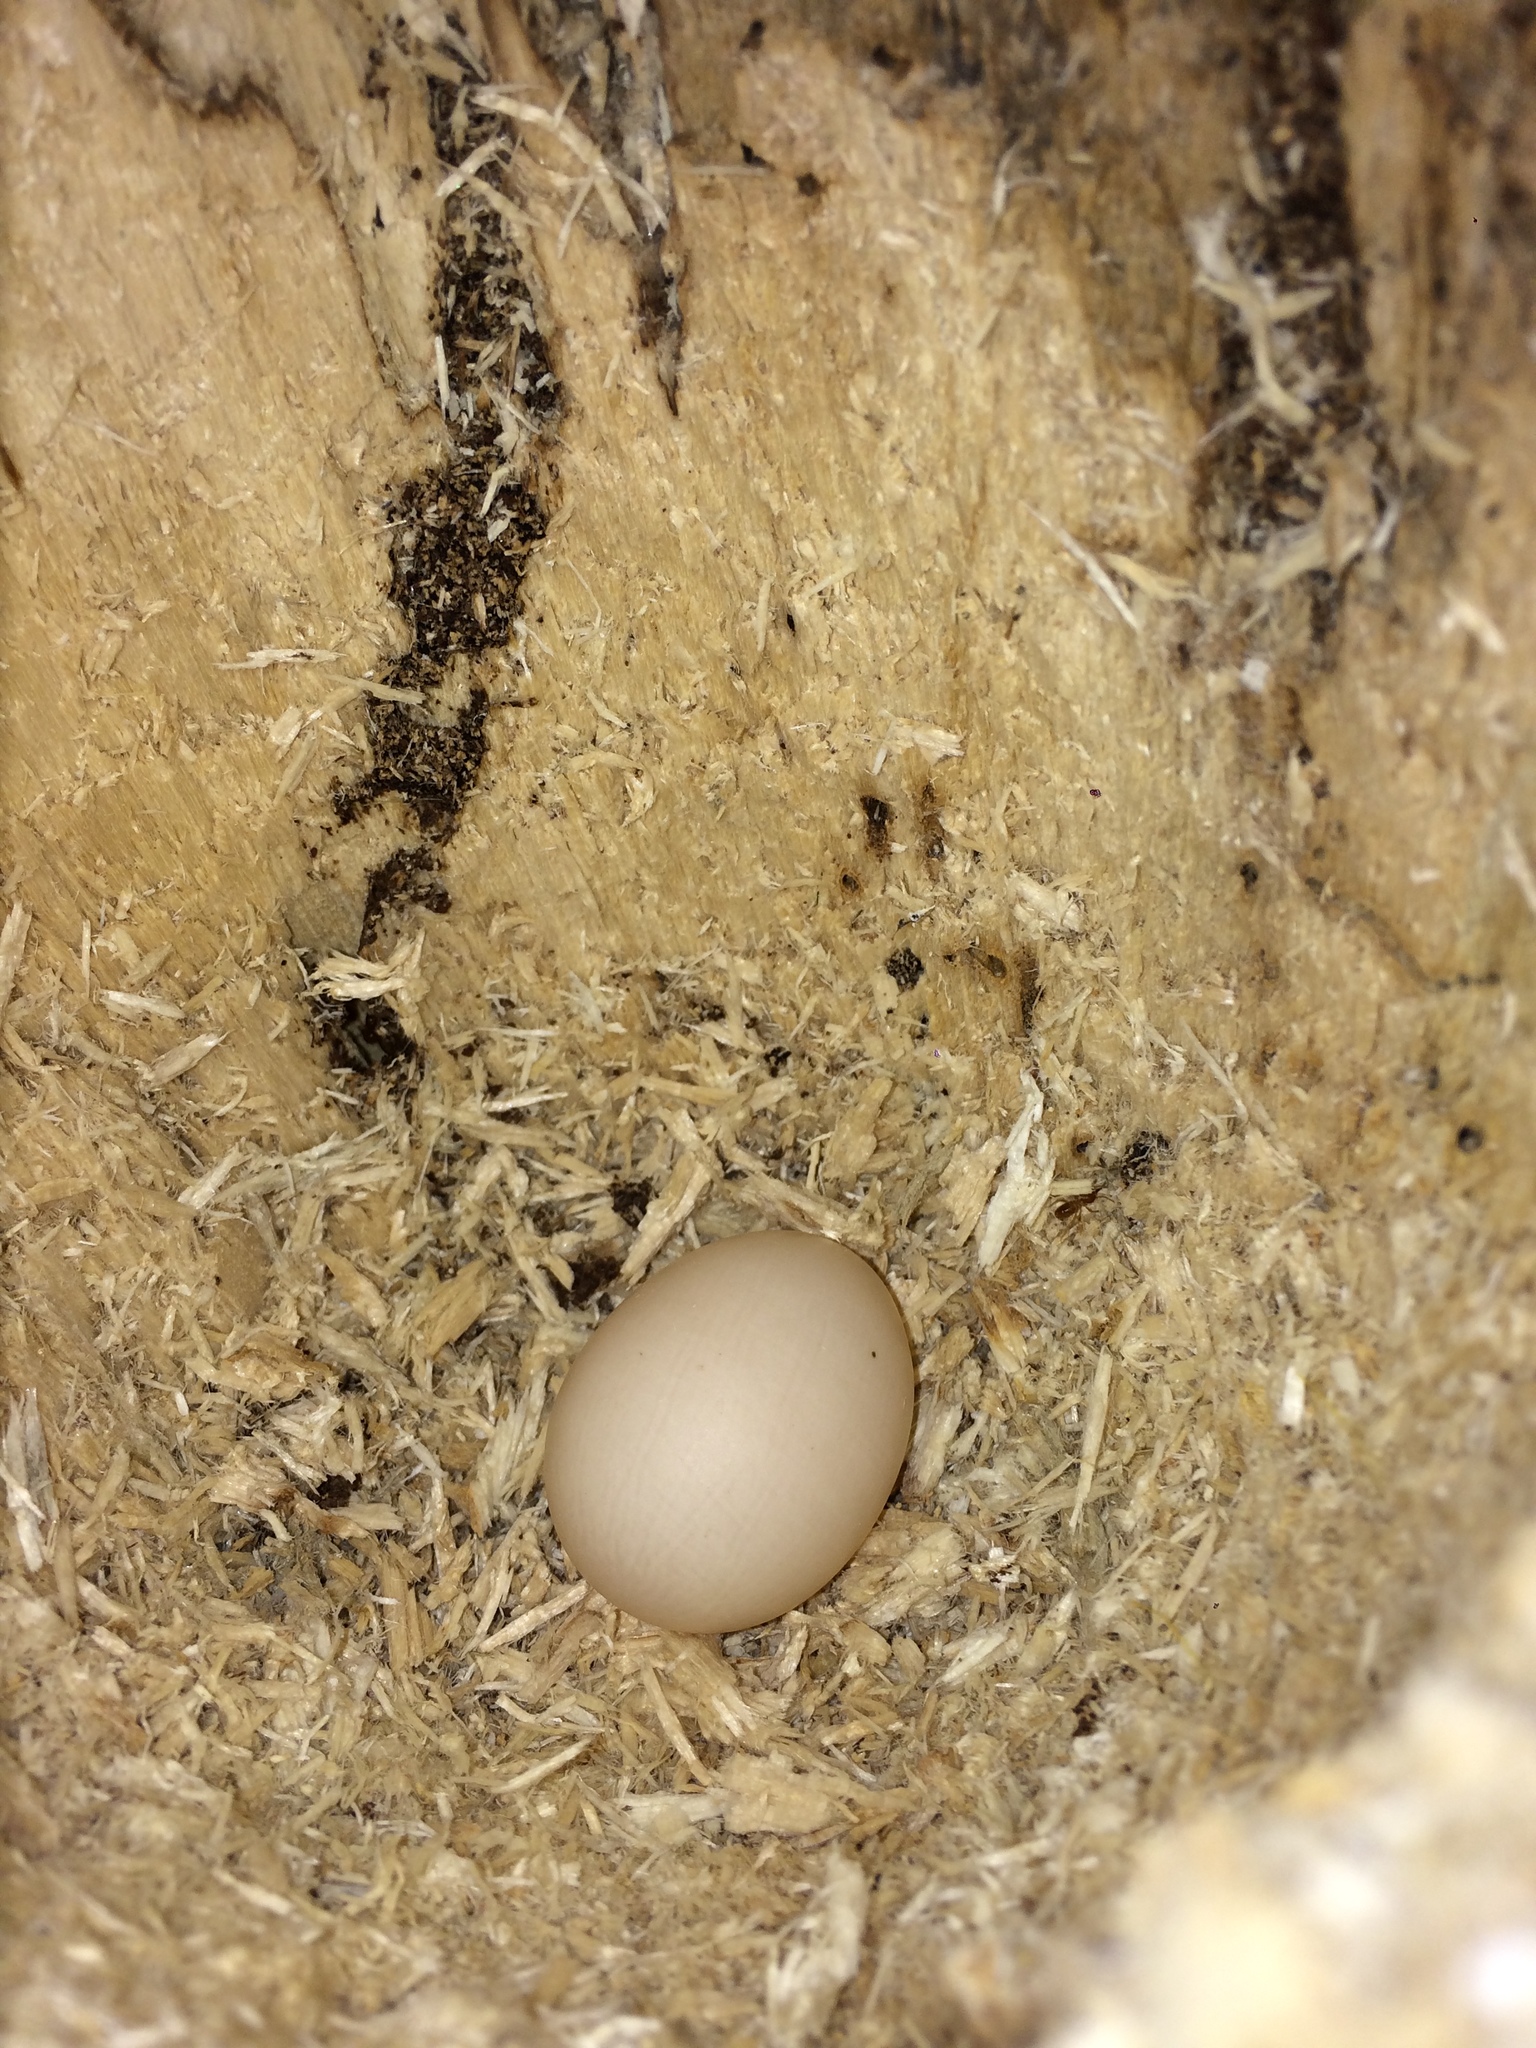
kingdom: Animalia
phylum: Chordata
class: Aves
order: Trogoniformes
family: Trogonidae
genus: Trogon
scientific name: Trogon rufus
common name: Black-throated trogon
